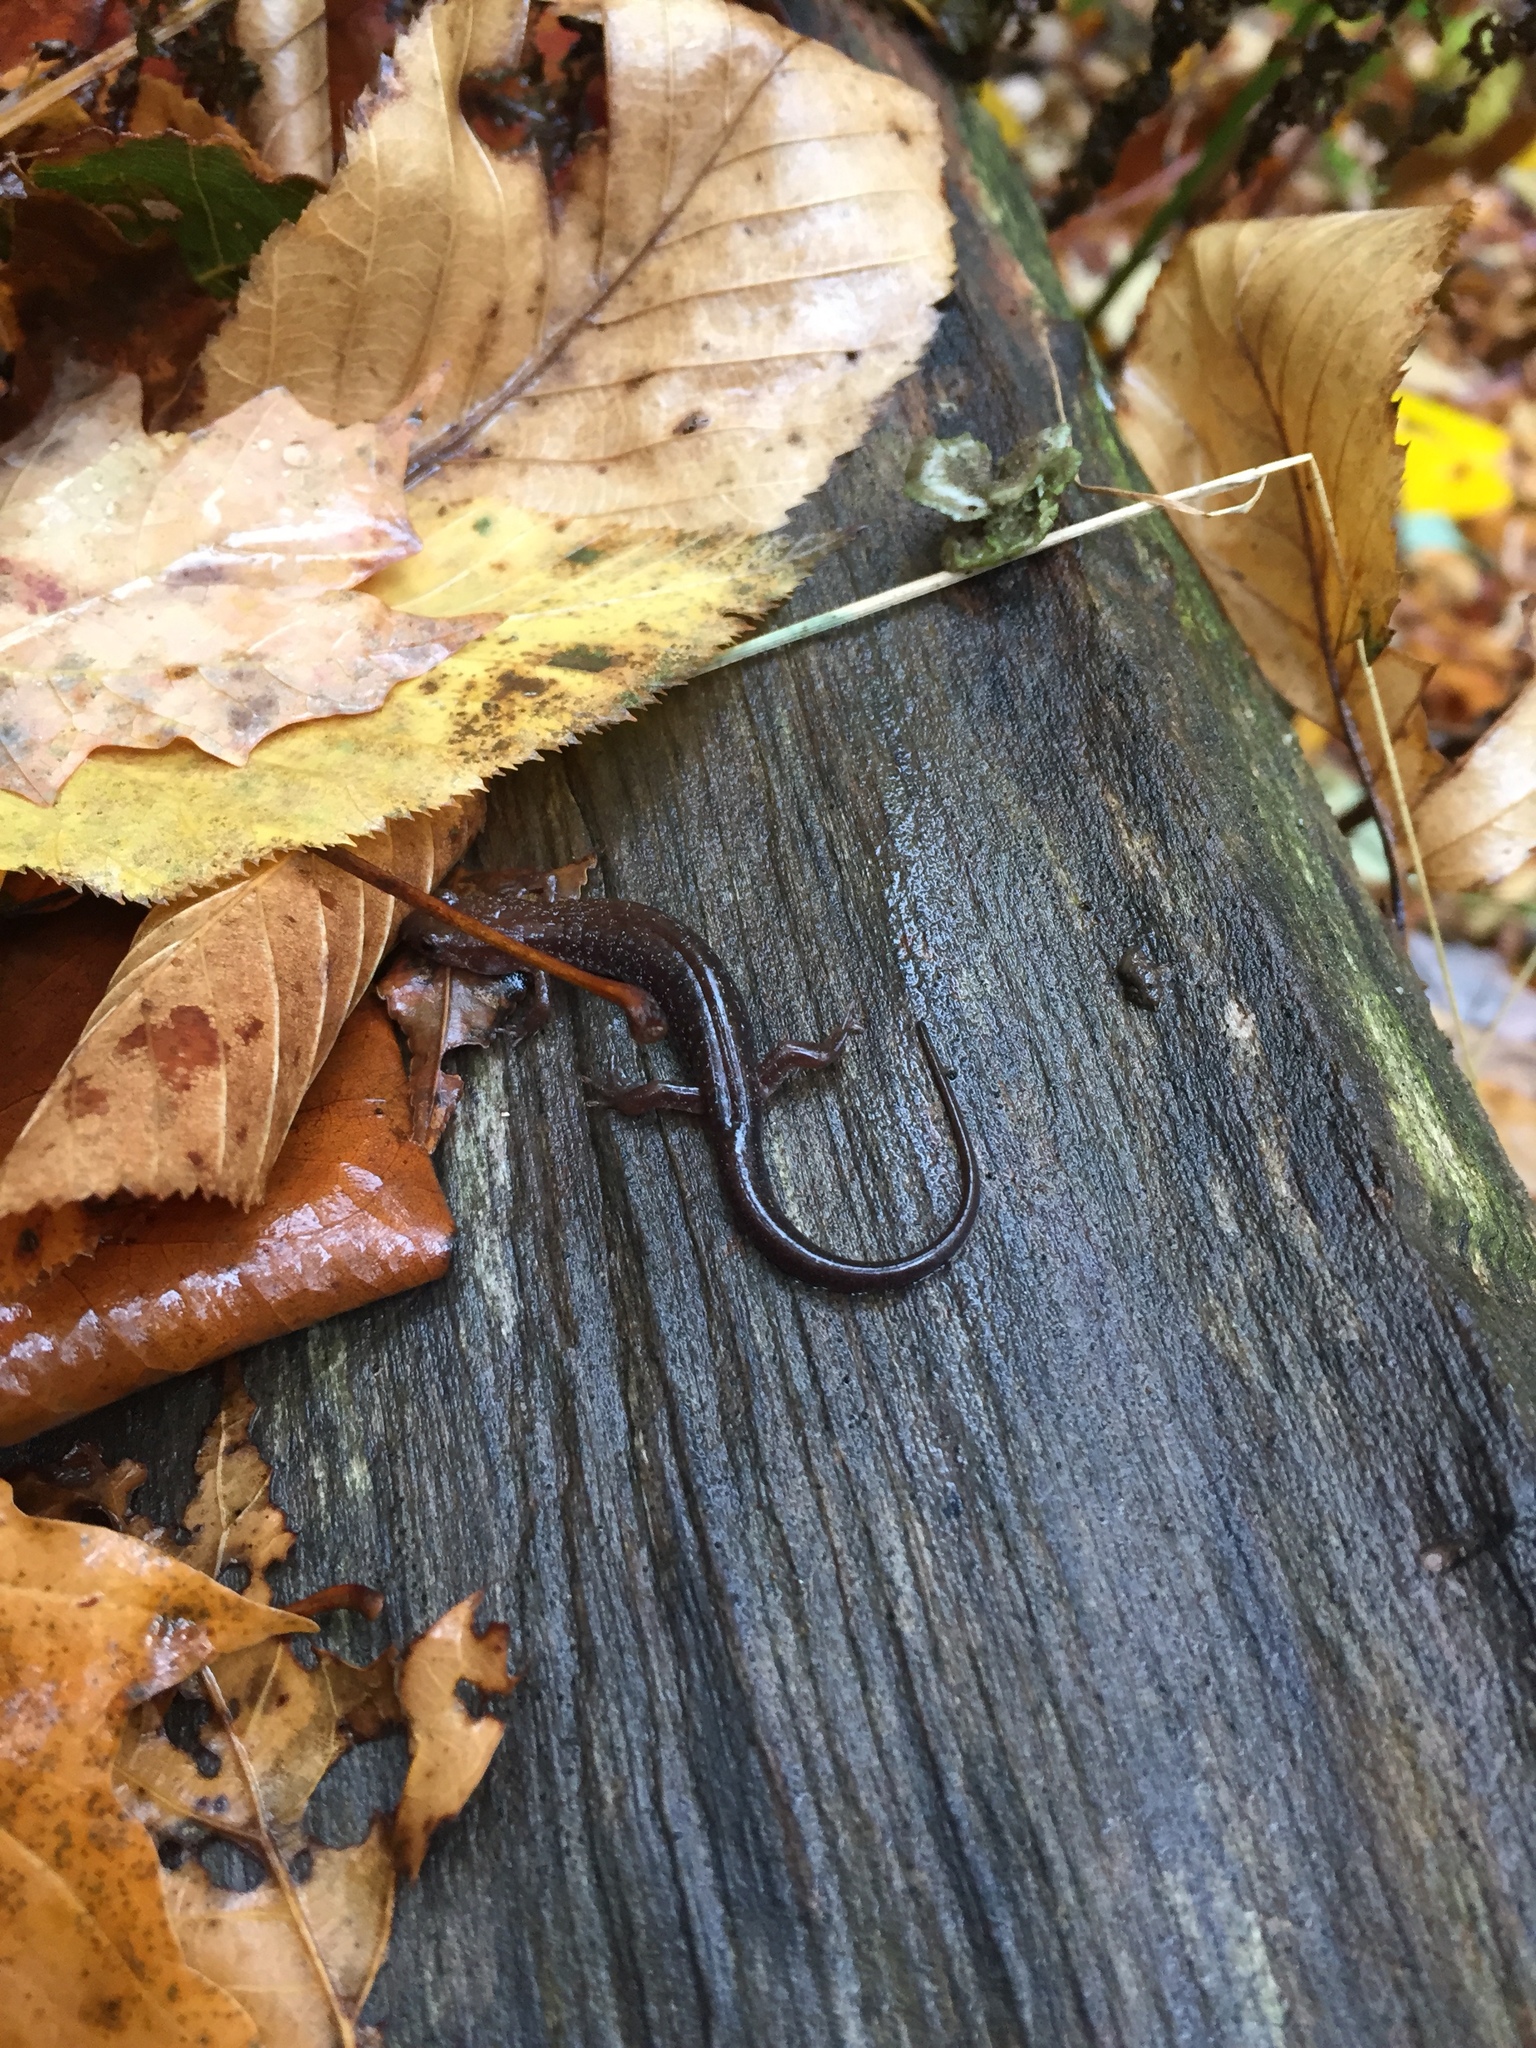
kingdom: Animalia
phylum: Chordata
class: Amphibia
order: Caudata
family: Plethodontidae
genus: Desmognathus
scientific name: Desmognathus ochrophaeus
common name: Allegheny mountain dusky salamander
